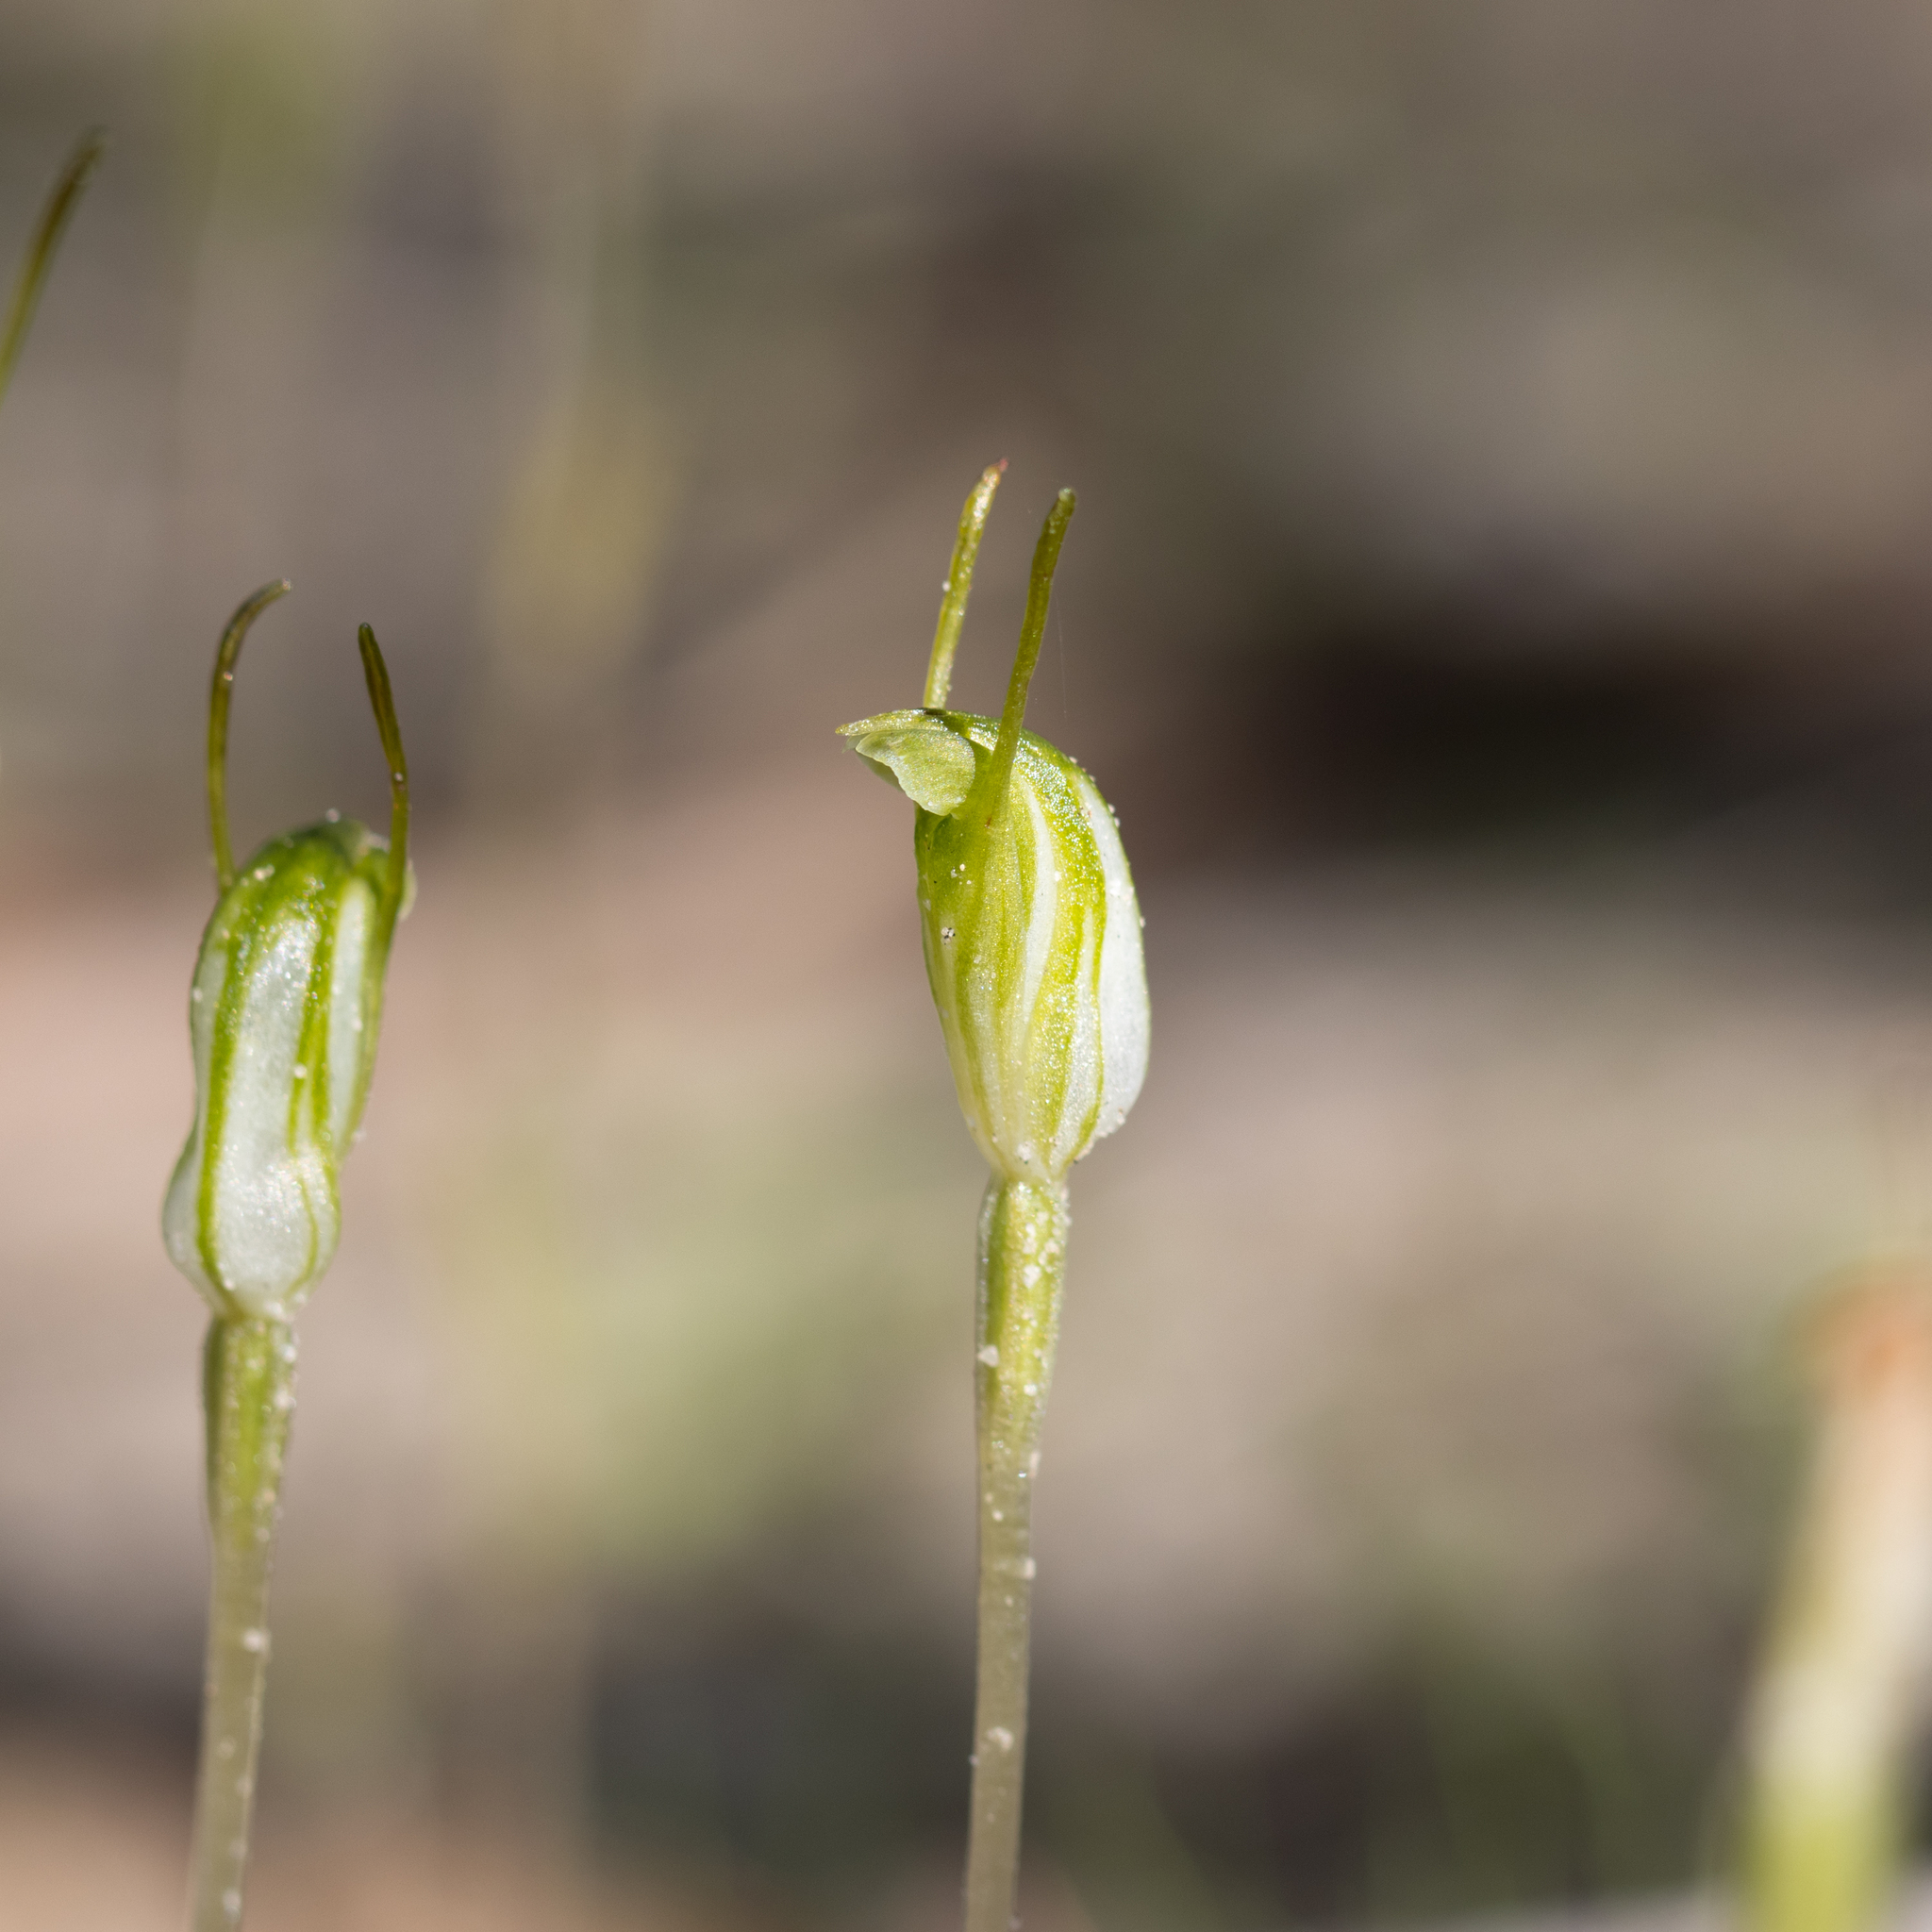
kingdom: Plantae
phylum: Tracheophyta
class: Liliopsida
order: Asparagales
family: Orchidaceae
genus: Pterostylis
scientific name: Pterostylis nana
